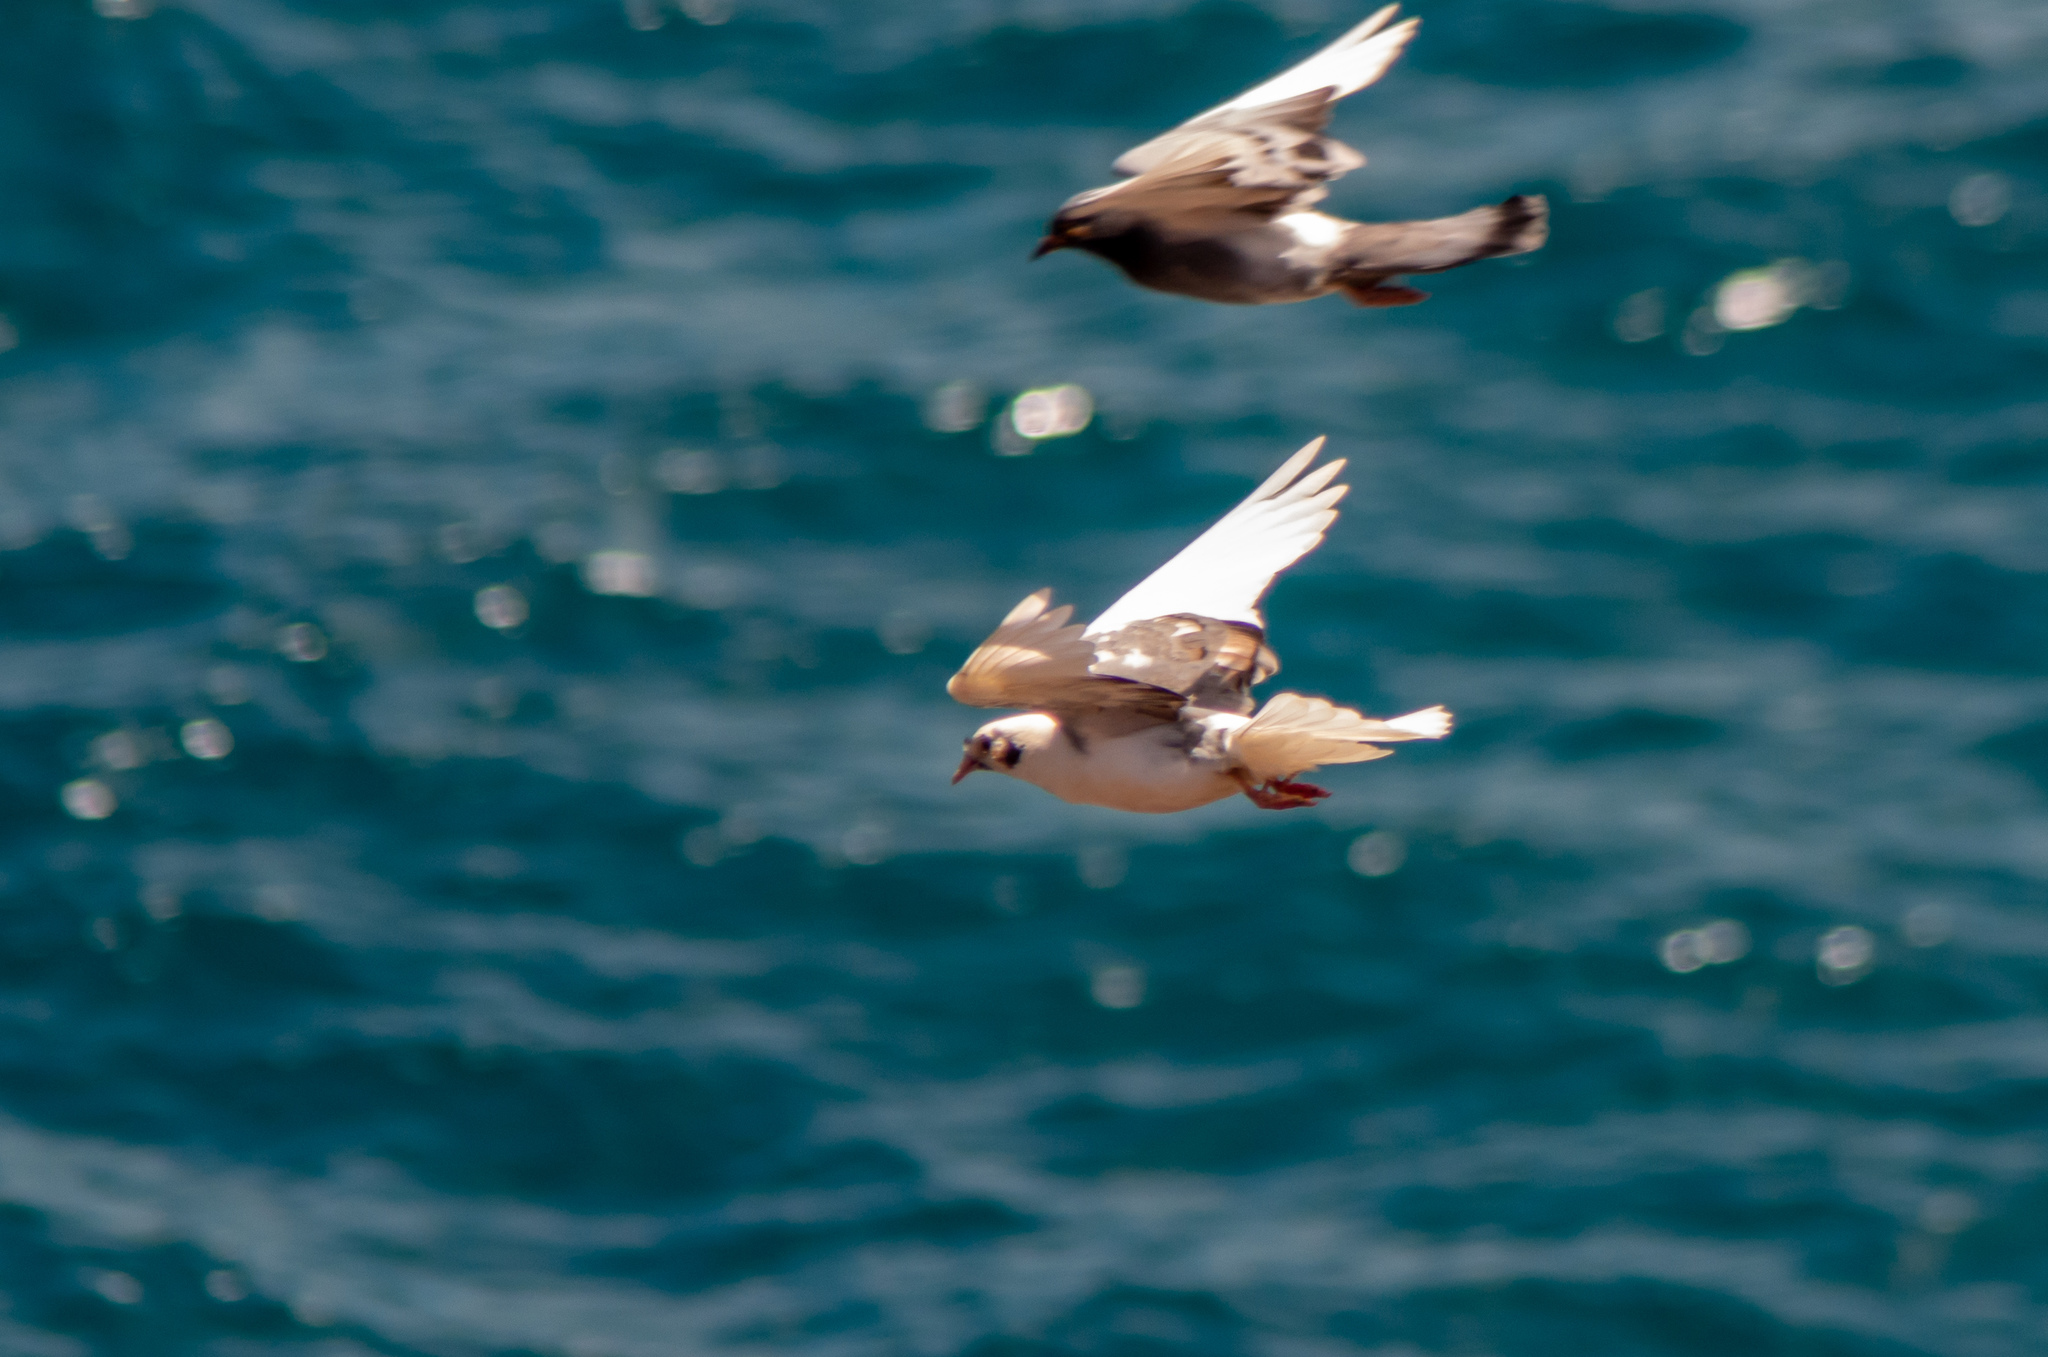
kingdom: Animalia
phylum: Chordata
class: Aves
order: Columbiformes
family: Columbidae
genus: Columba
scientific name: Columba livia
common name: Rock pigeon
